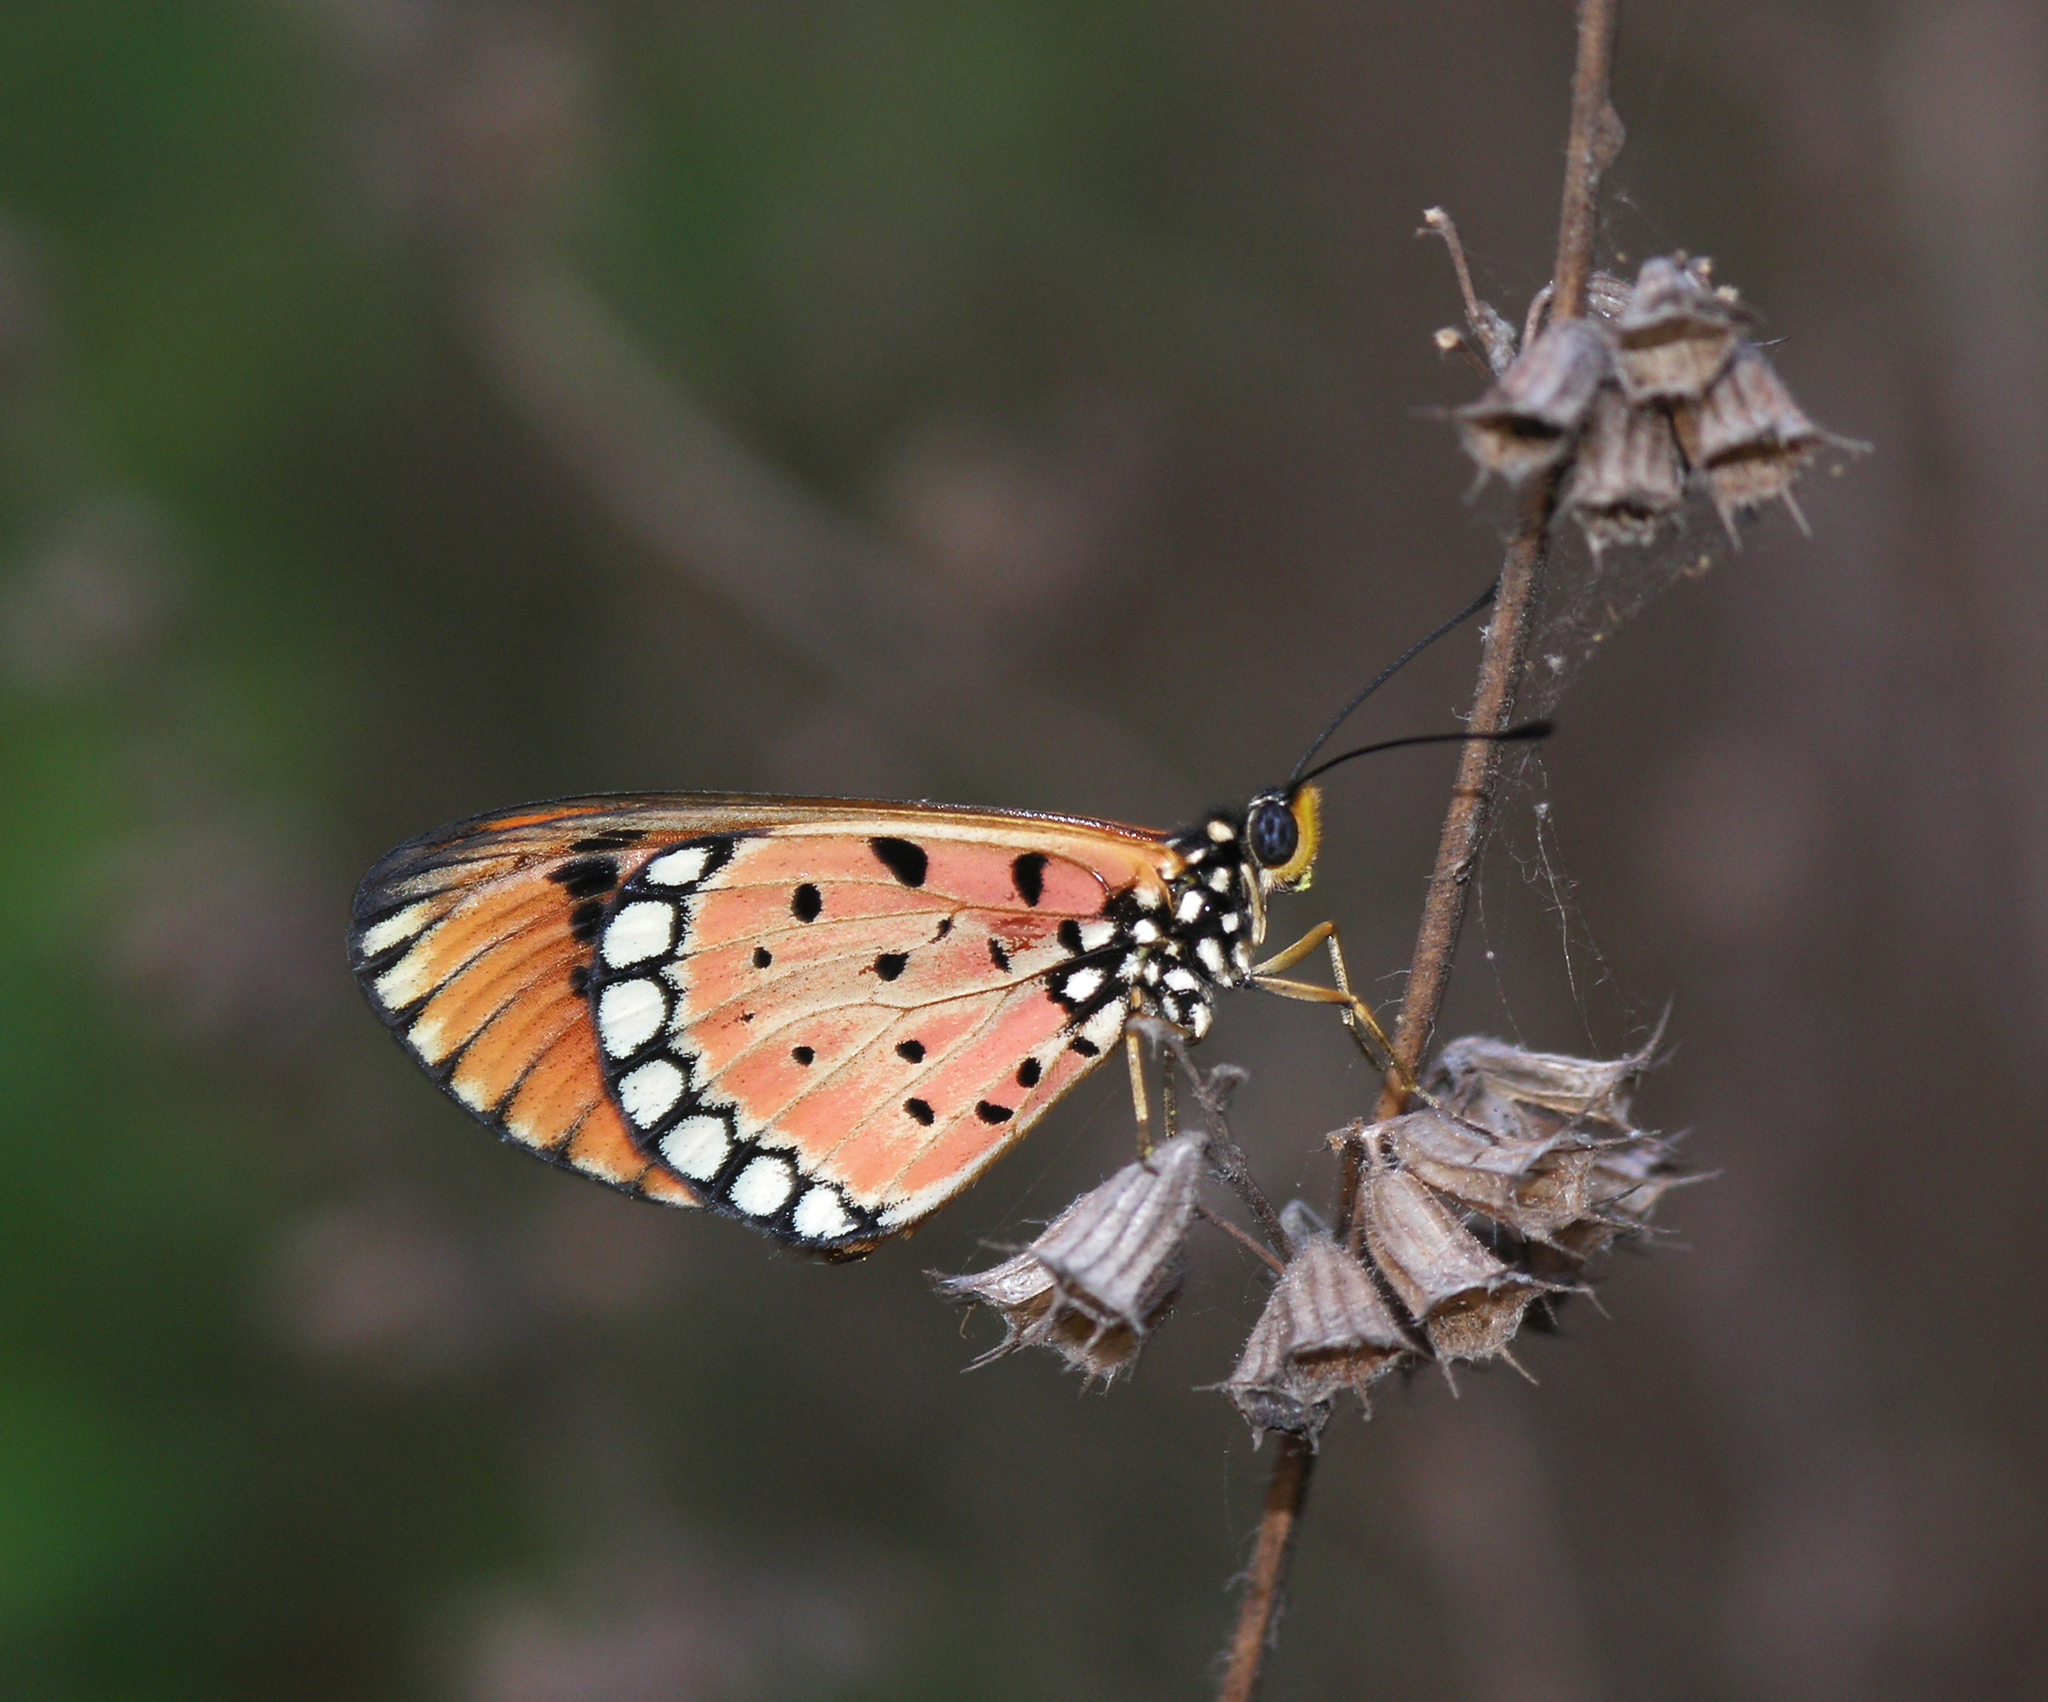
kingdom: Animalia
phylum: Arthropoda
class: Insecta
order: Lepidoptera
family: Nymphalidae
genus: Acraea
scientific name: Acraea terpsicore
